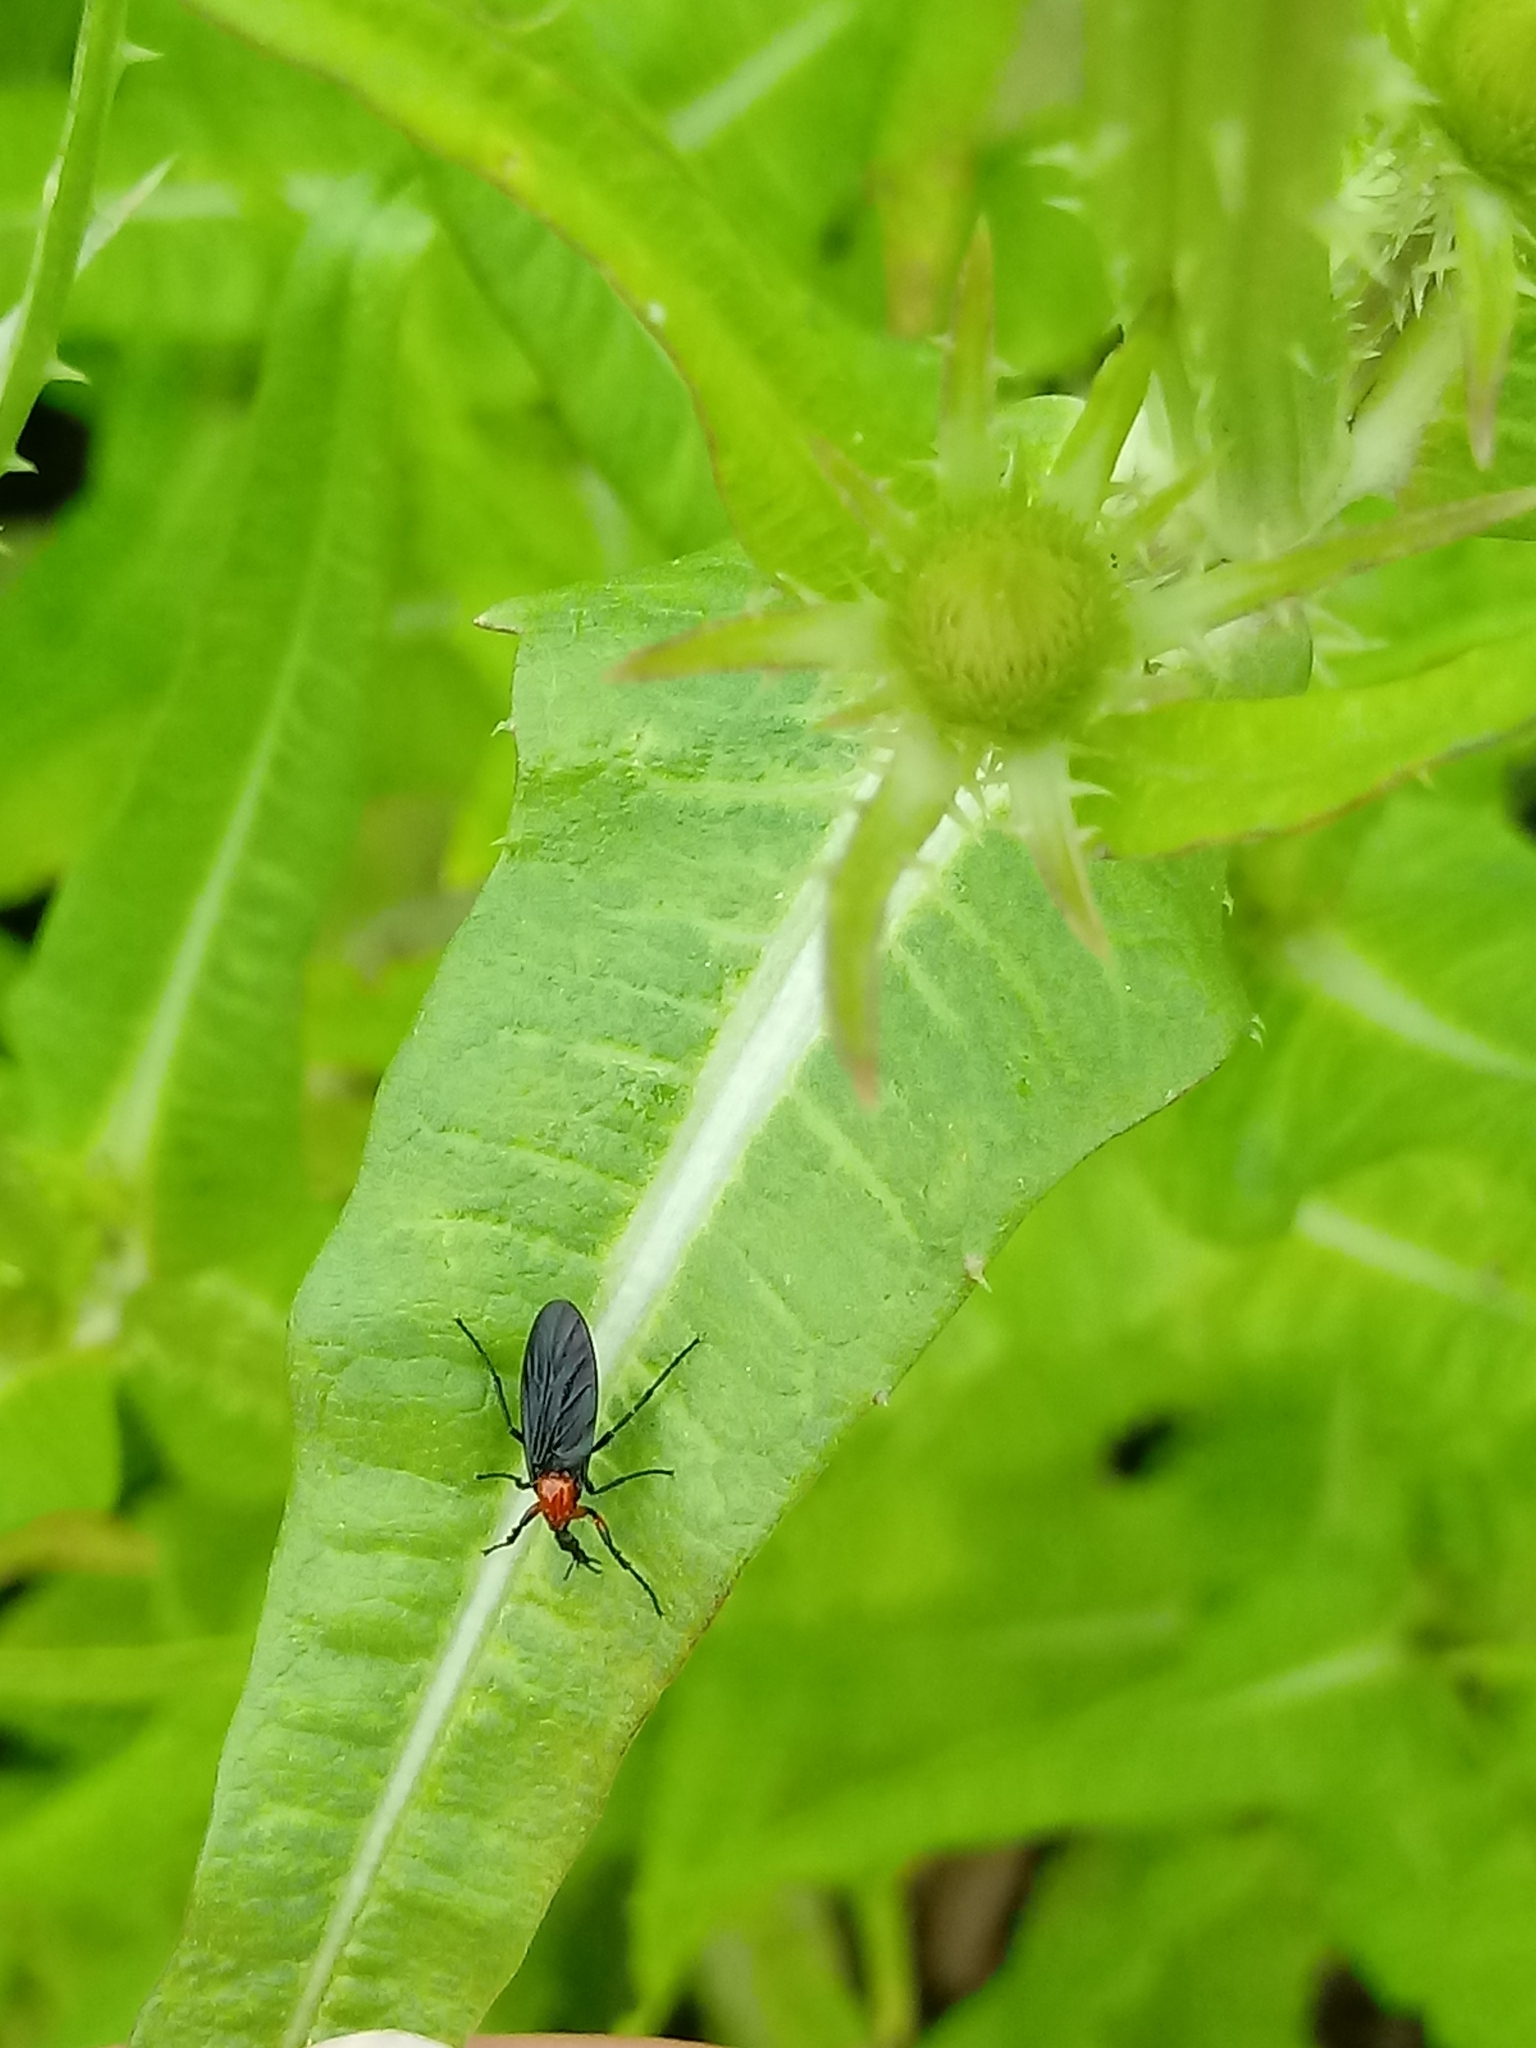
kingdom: Animalia
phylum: Arthropoda
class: Insecta
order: Diptera
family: Bibionidae
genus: Dilophus
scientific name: Dilophus pectoralis
